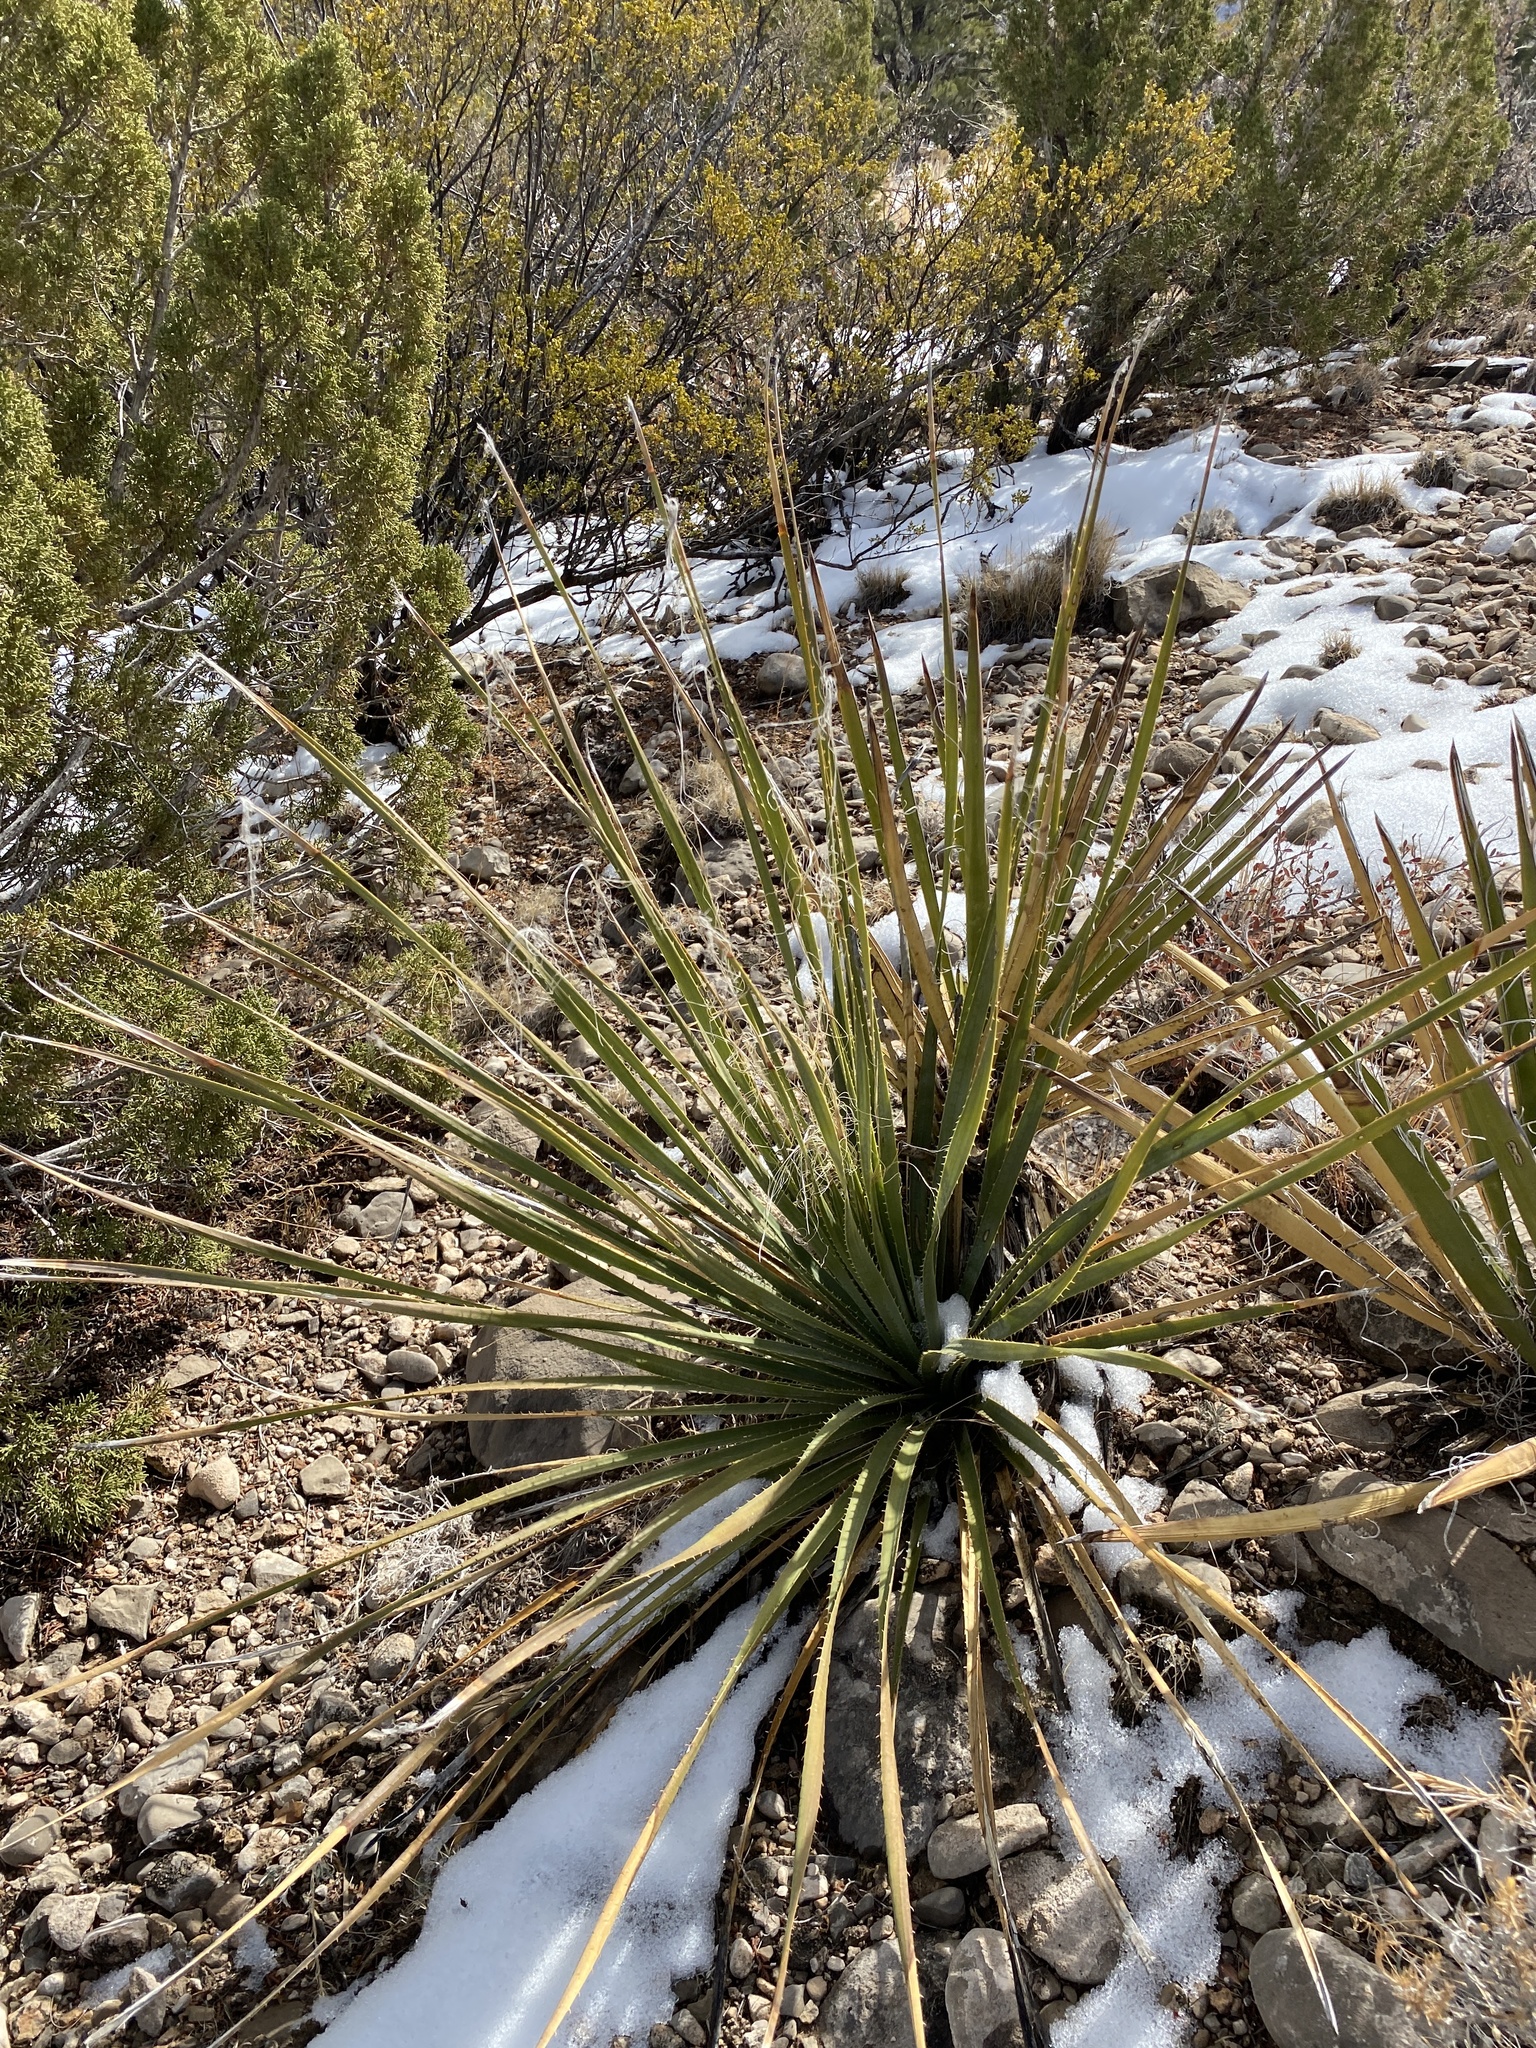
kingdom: Plantae
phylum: Tracheophyta
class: Liliopsida
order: Asparagales
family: Asparagaceae
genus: Dasylirion
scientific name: Dasylirion wheeleri
